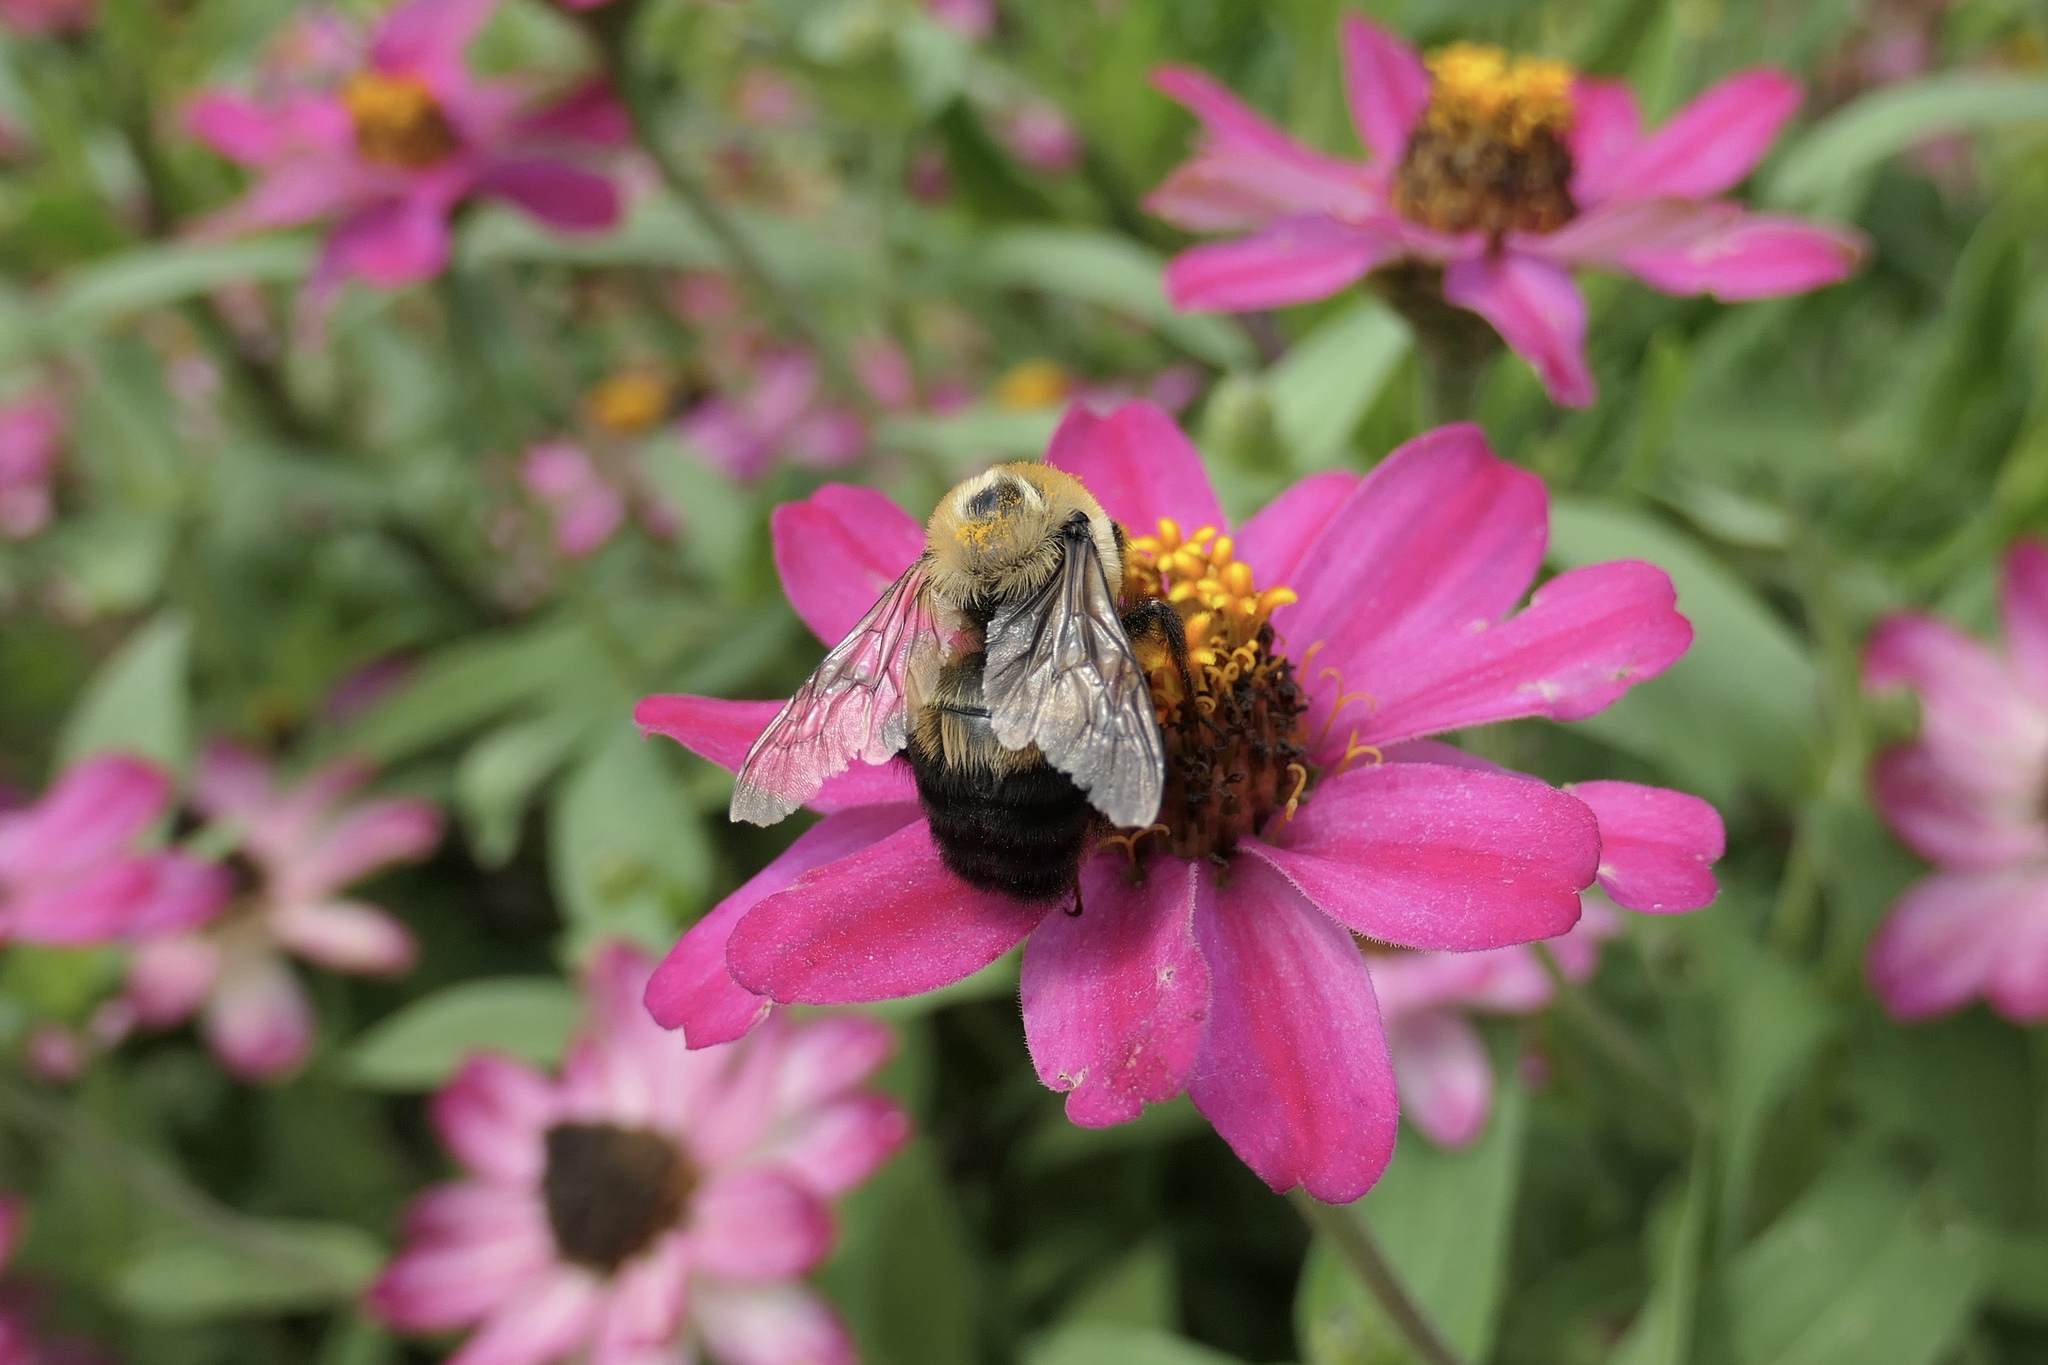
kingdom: Animalia
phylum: Arthropoda
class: Insecta
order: Hymenoptera
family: Apidae
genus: Bombus
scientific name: Bombus griseocollis
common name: Brown-belted bumble bee
